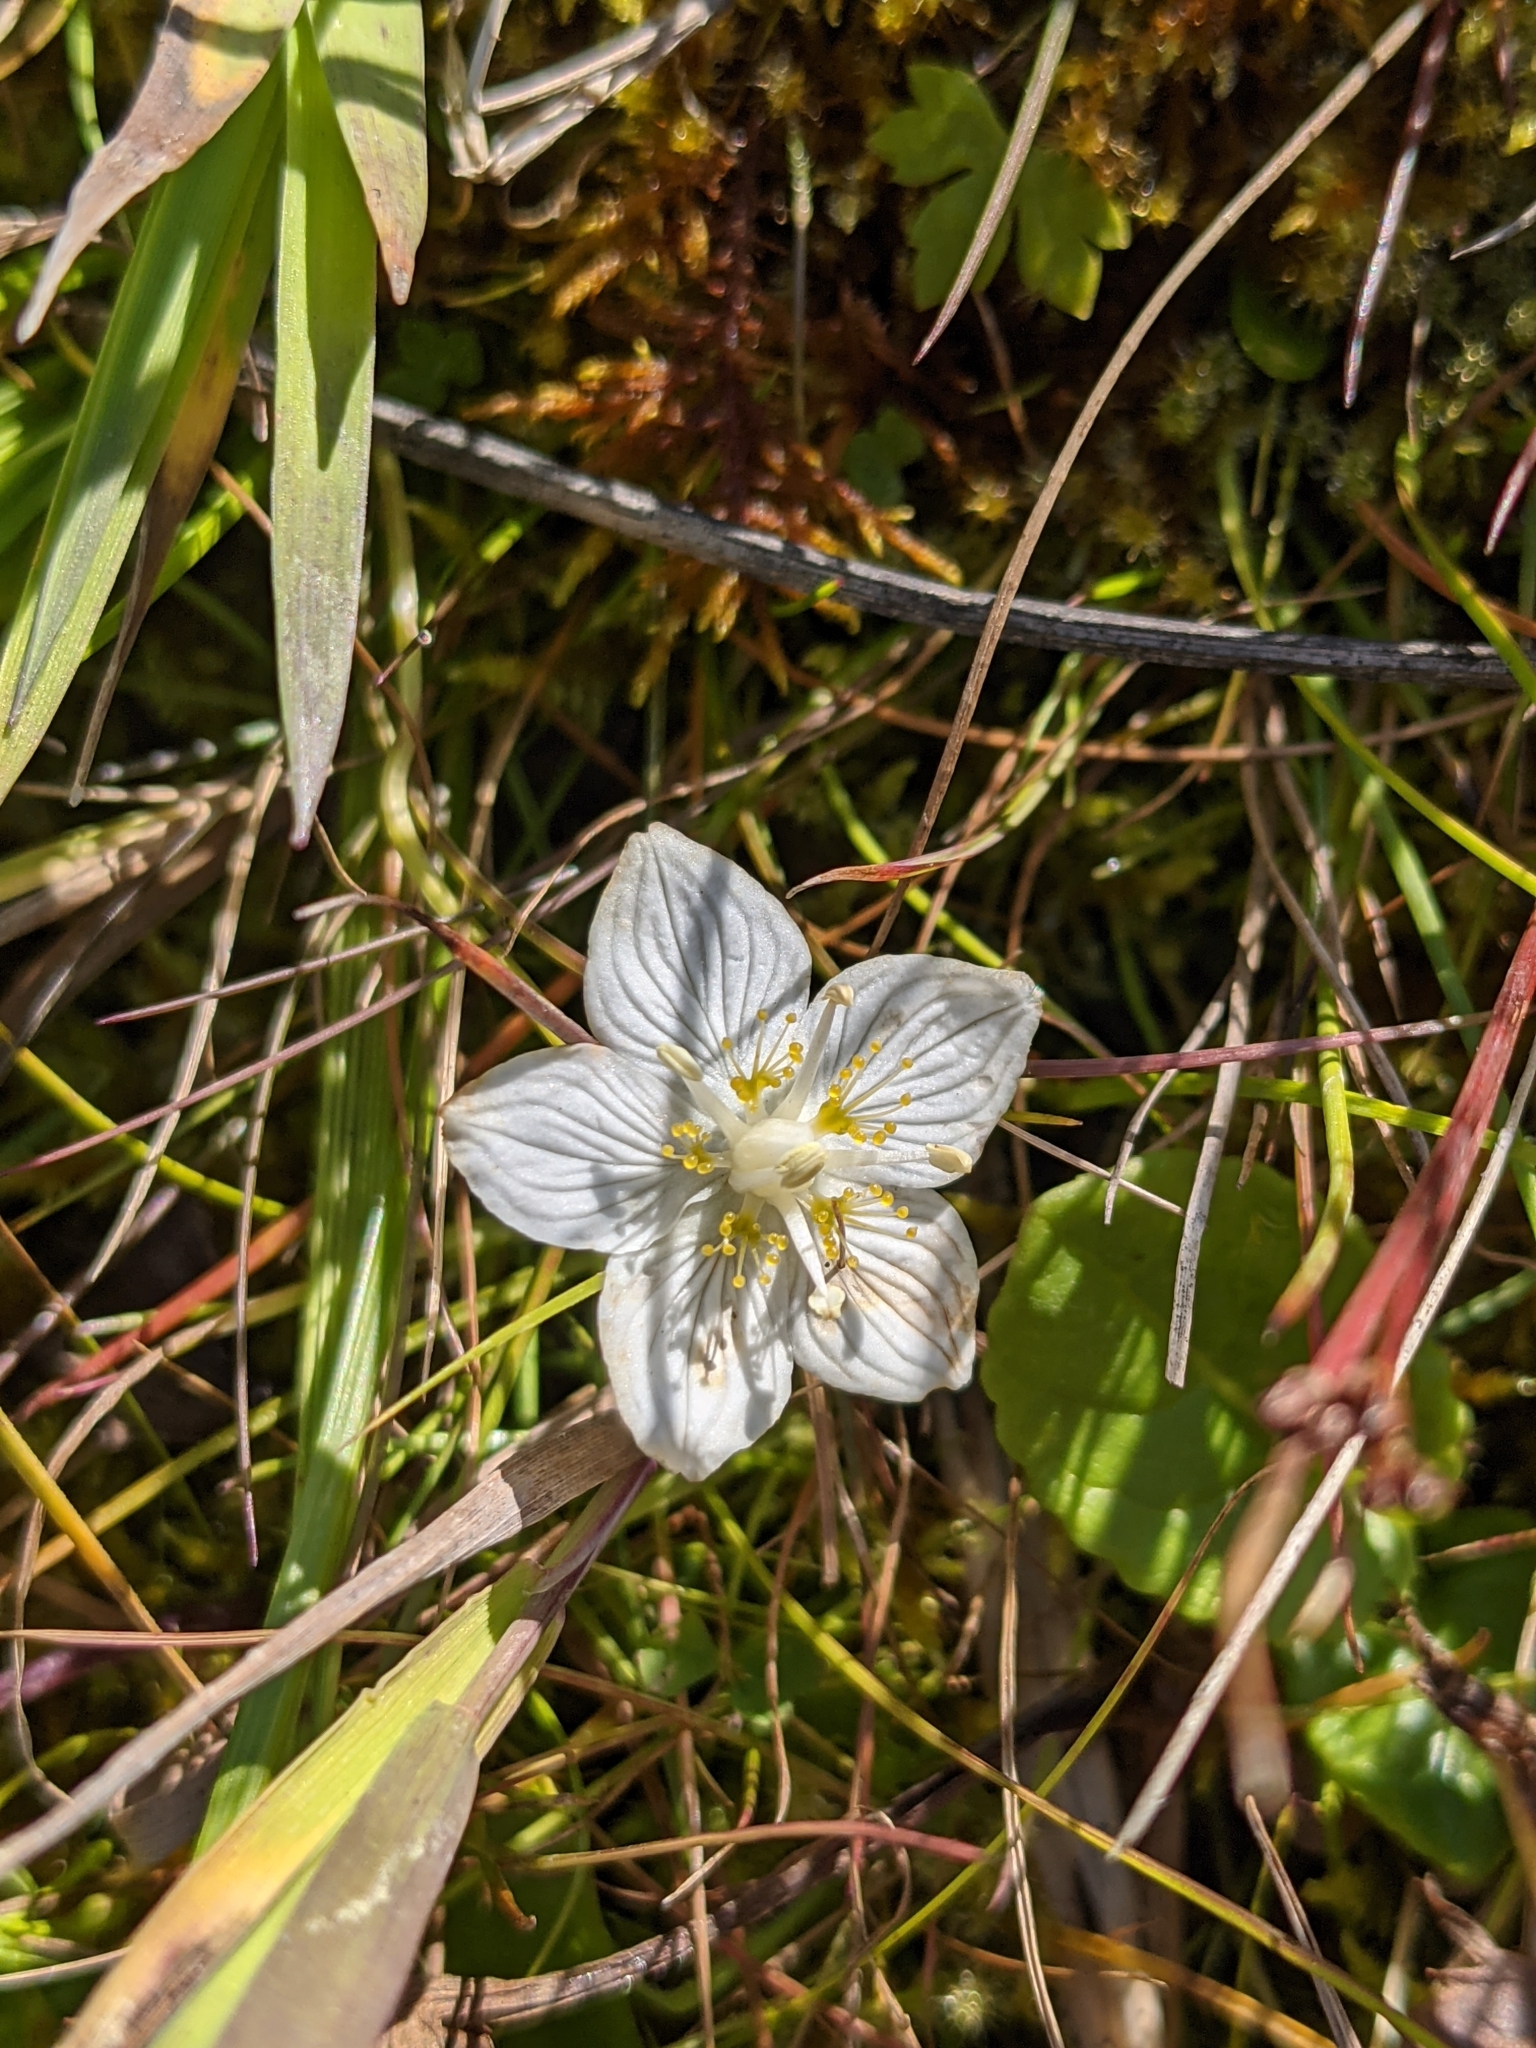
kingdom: Plantae
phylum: Tracheophyta
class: Magnoliopsida
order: Celastrales
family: Parnassiaceae
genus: Parnassia
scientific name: Parnassia palustris
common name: Grass-of-parnassus
